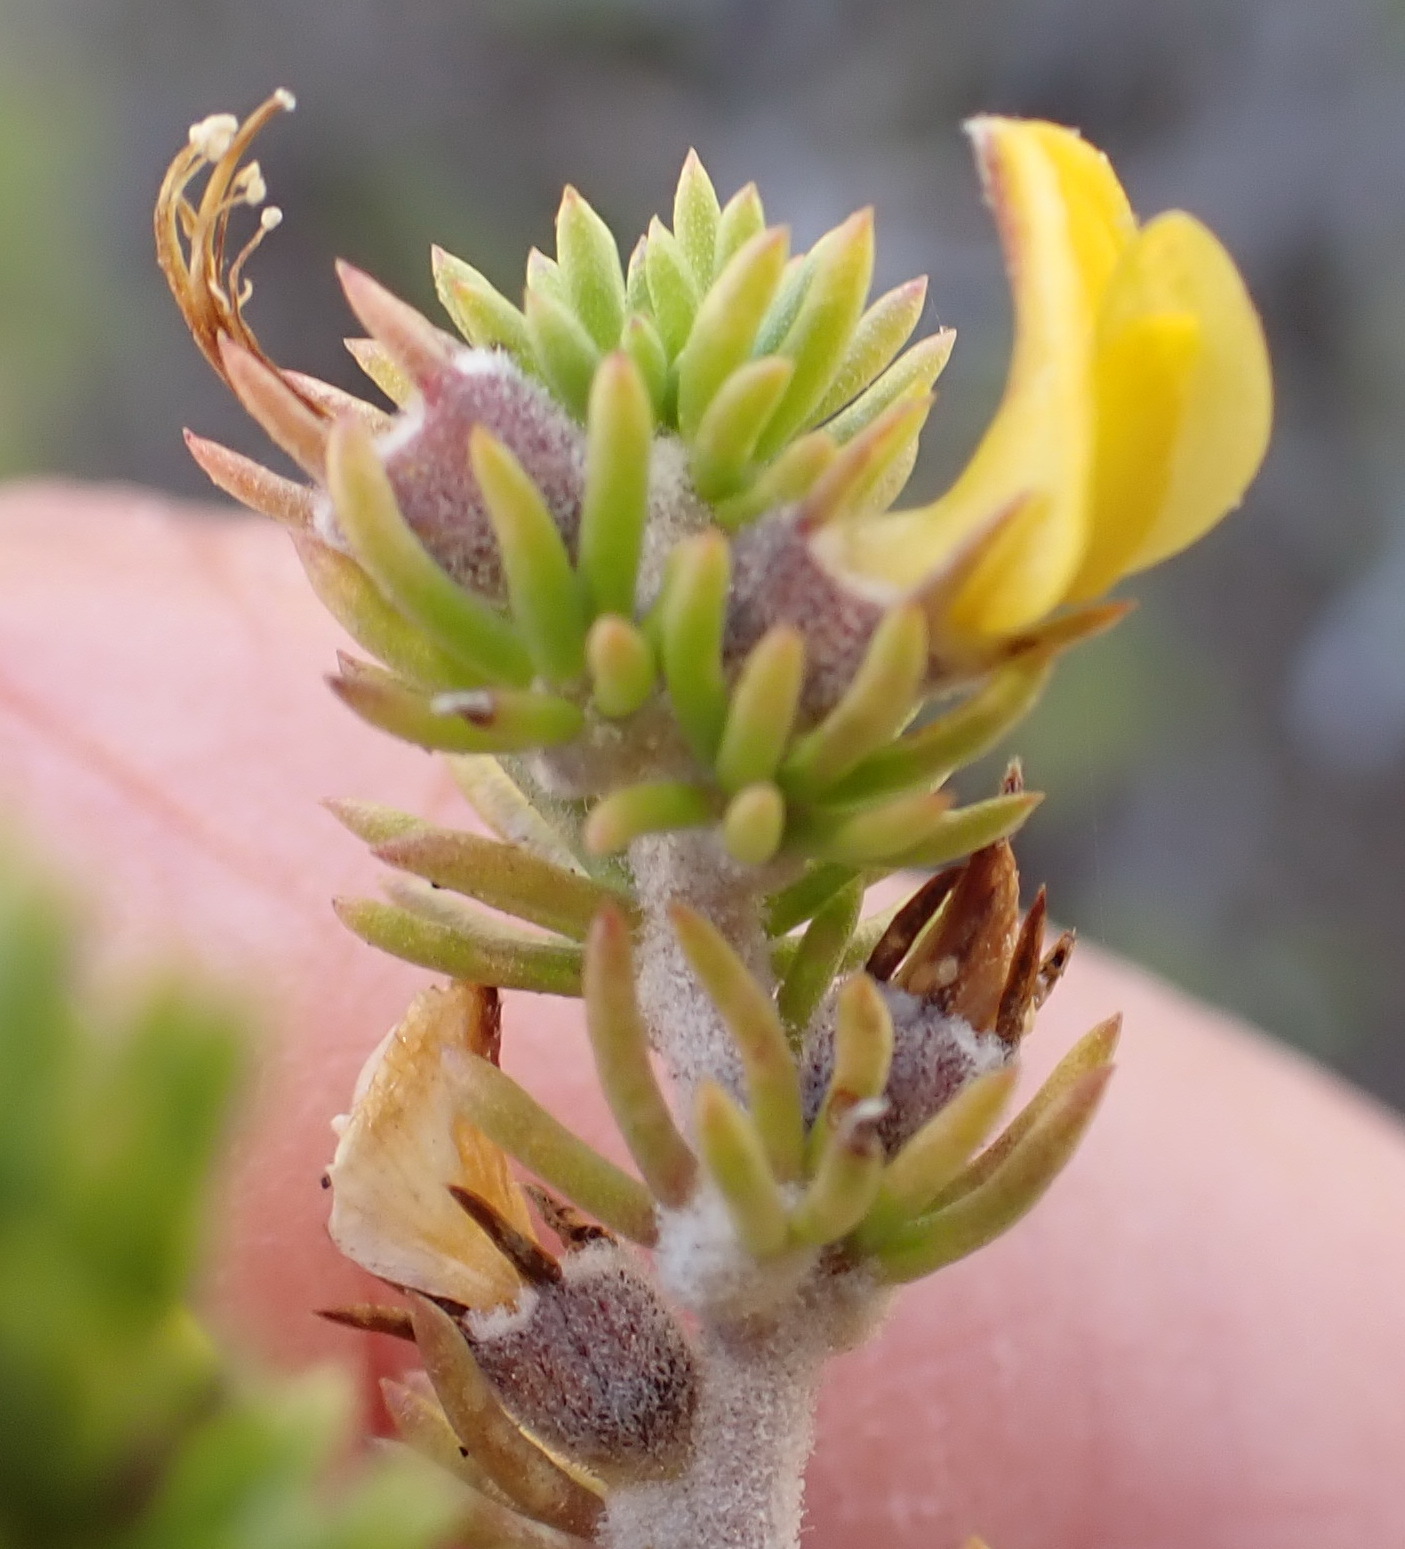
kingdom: Plantae
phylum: Tracheophyta
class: Magnoliopsida
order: Fabales
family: Fabaceae
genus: Aspalathus
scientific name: Aspalathus calcarea
